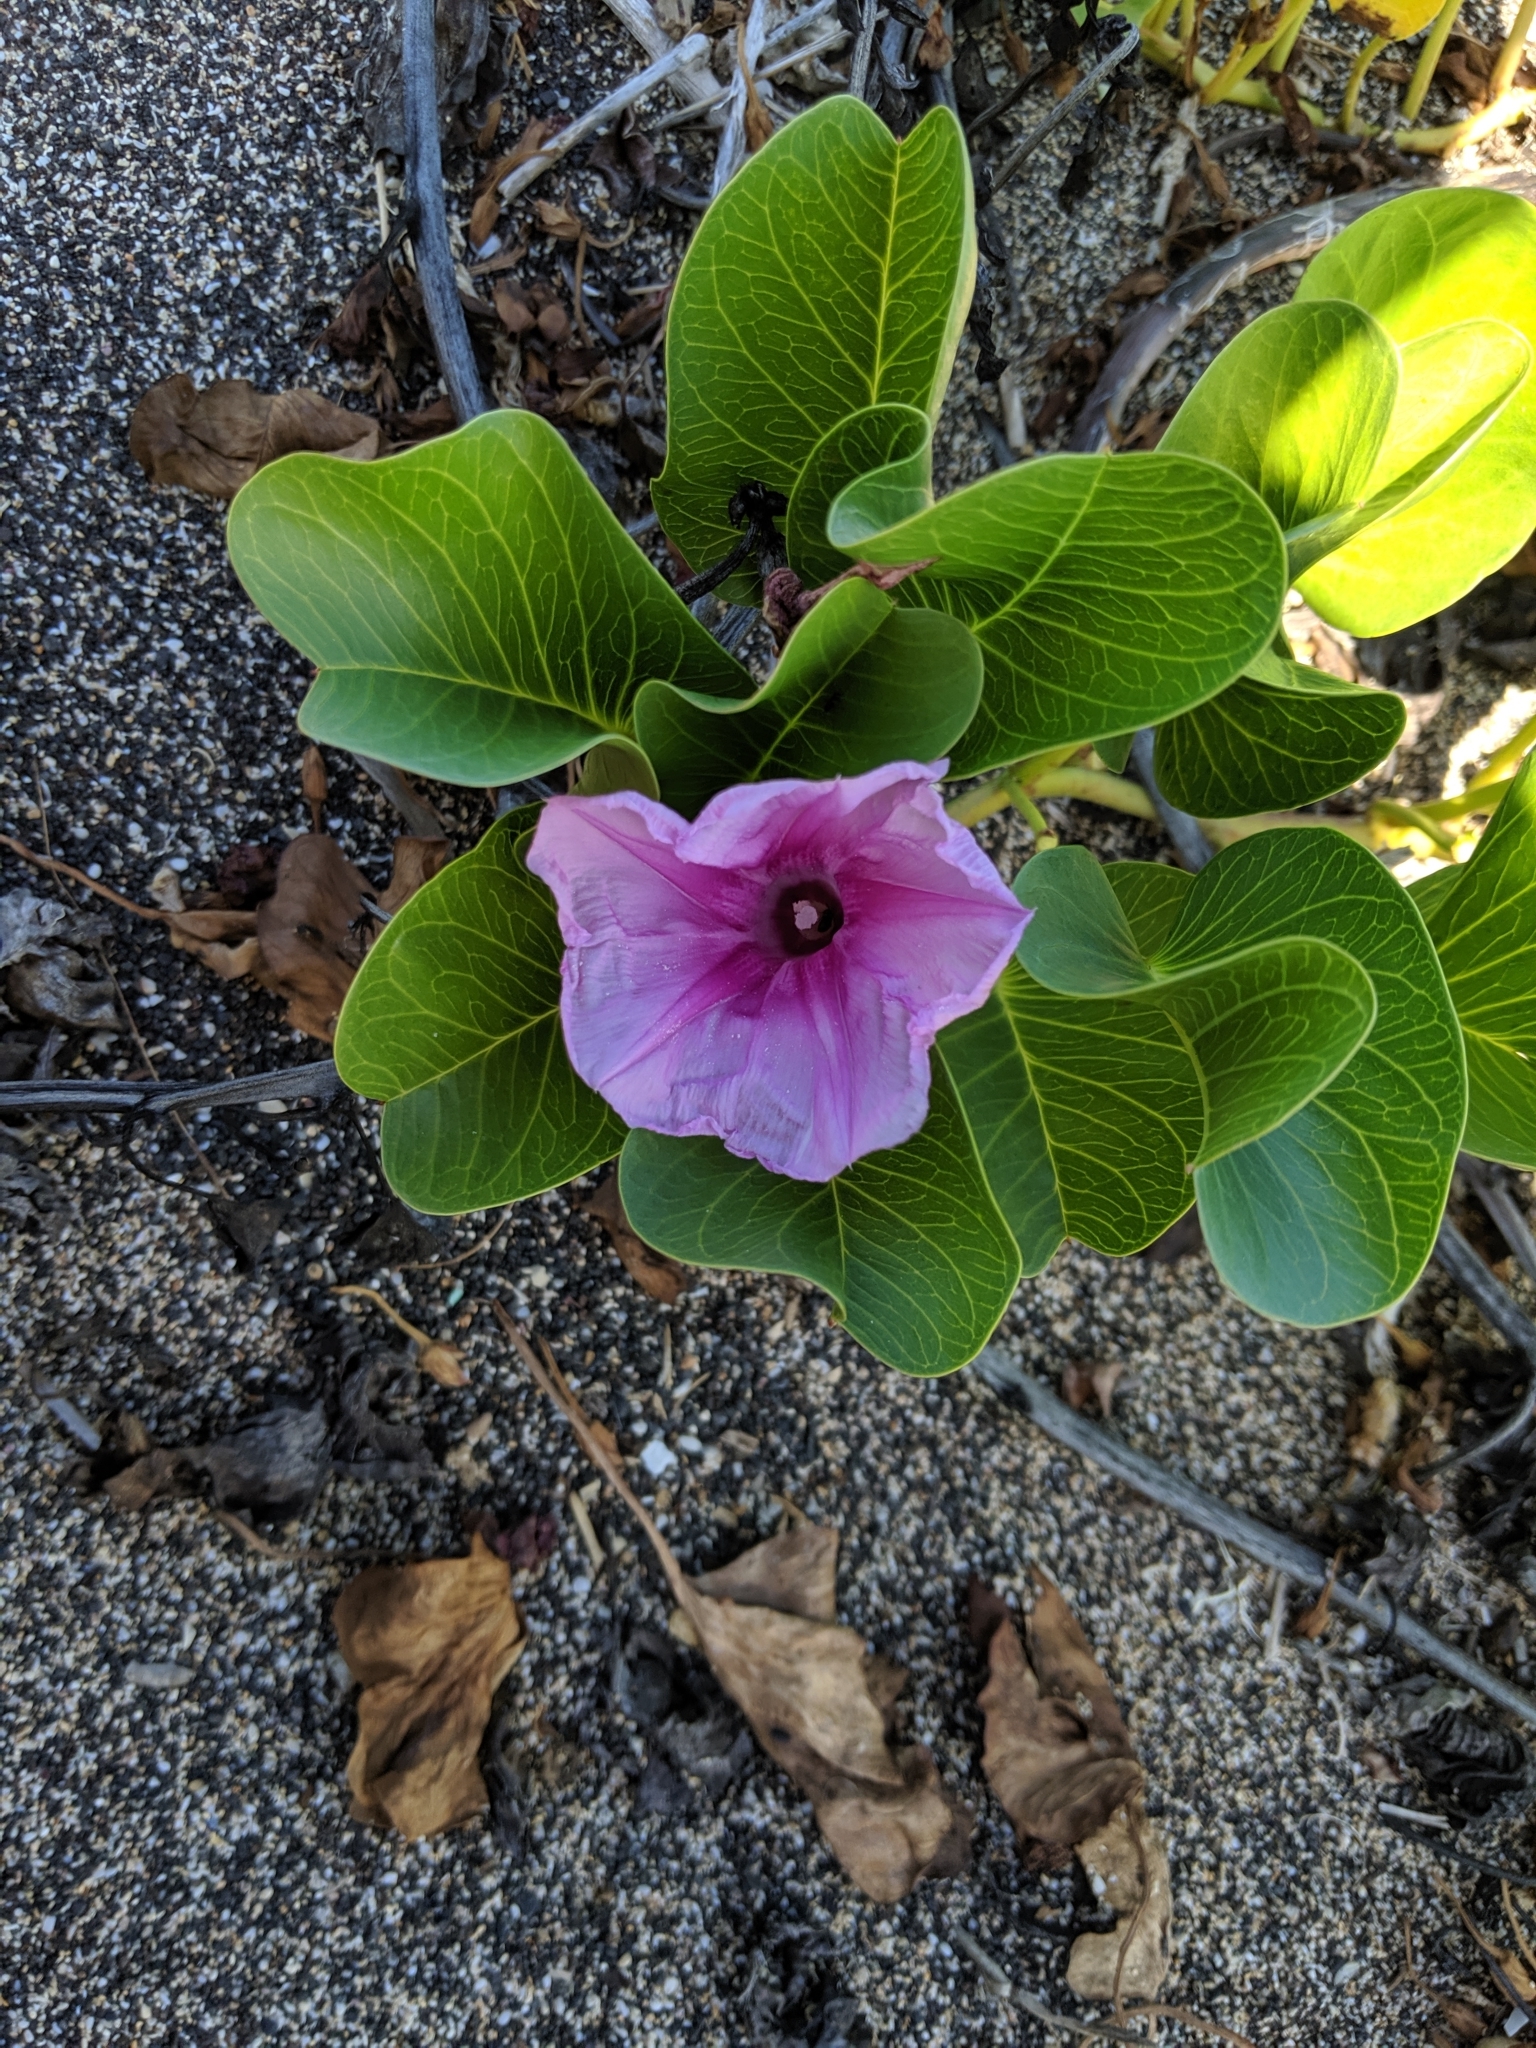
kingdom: Plantae
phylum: Tracheophyta
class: Magnoliopsida
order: Solanales
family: Convolvulaceae
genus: Ipomoea
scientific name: Ipomoea pes-caprae
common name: Beach morning glory
